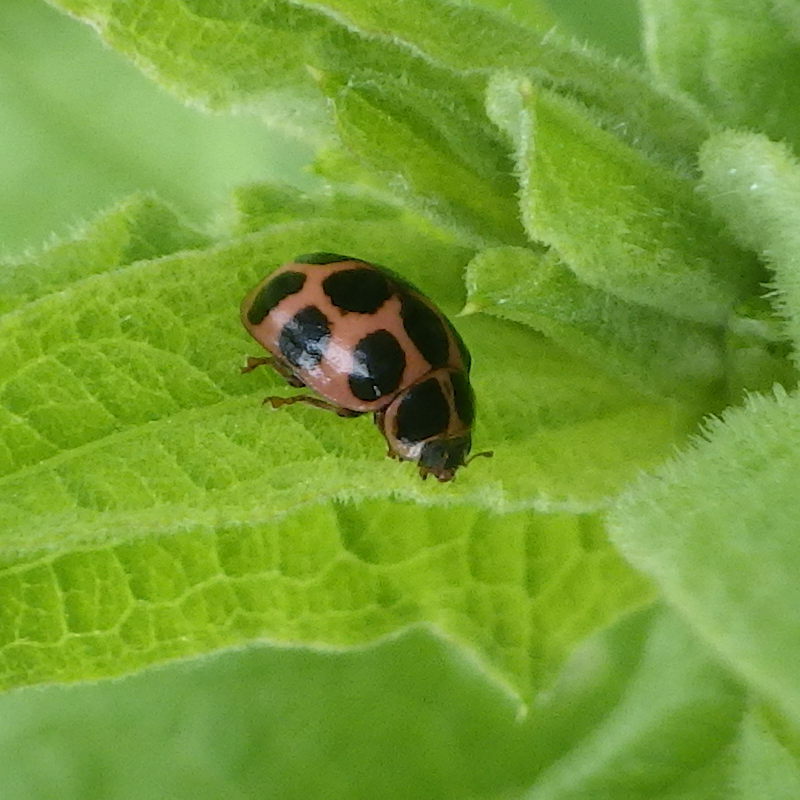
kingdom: Animalia
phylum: Arthropoda
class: Insecta
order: Coleoptera
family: Coccinellidae
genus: Calvia
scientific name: Calvia quatuordecimguttata
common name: Cream-spot ladybird
